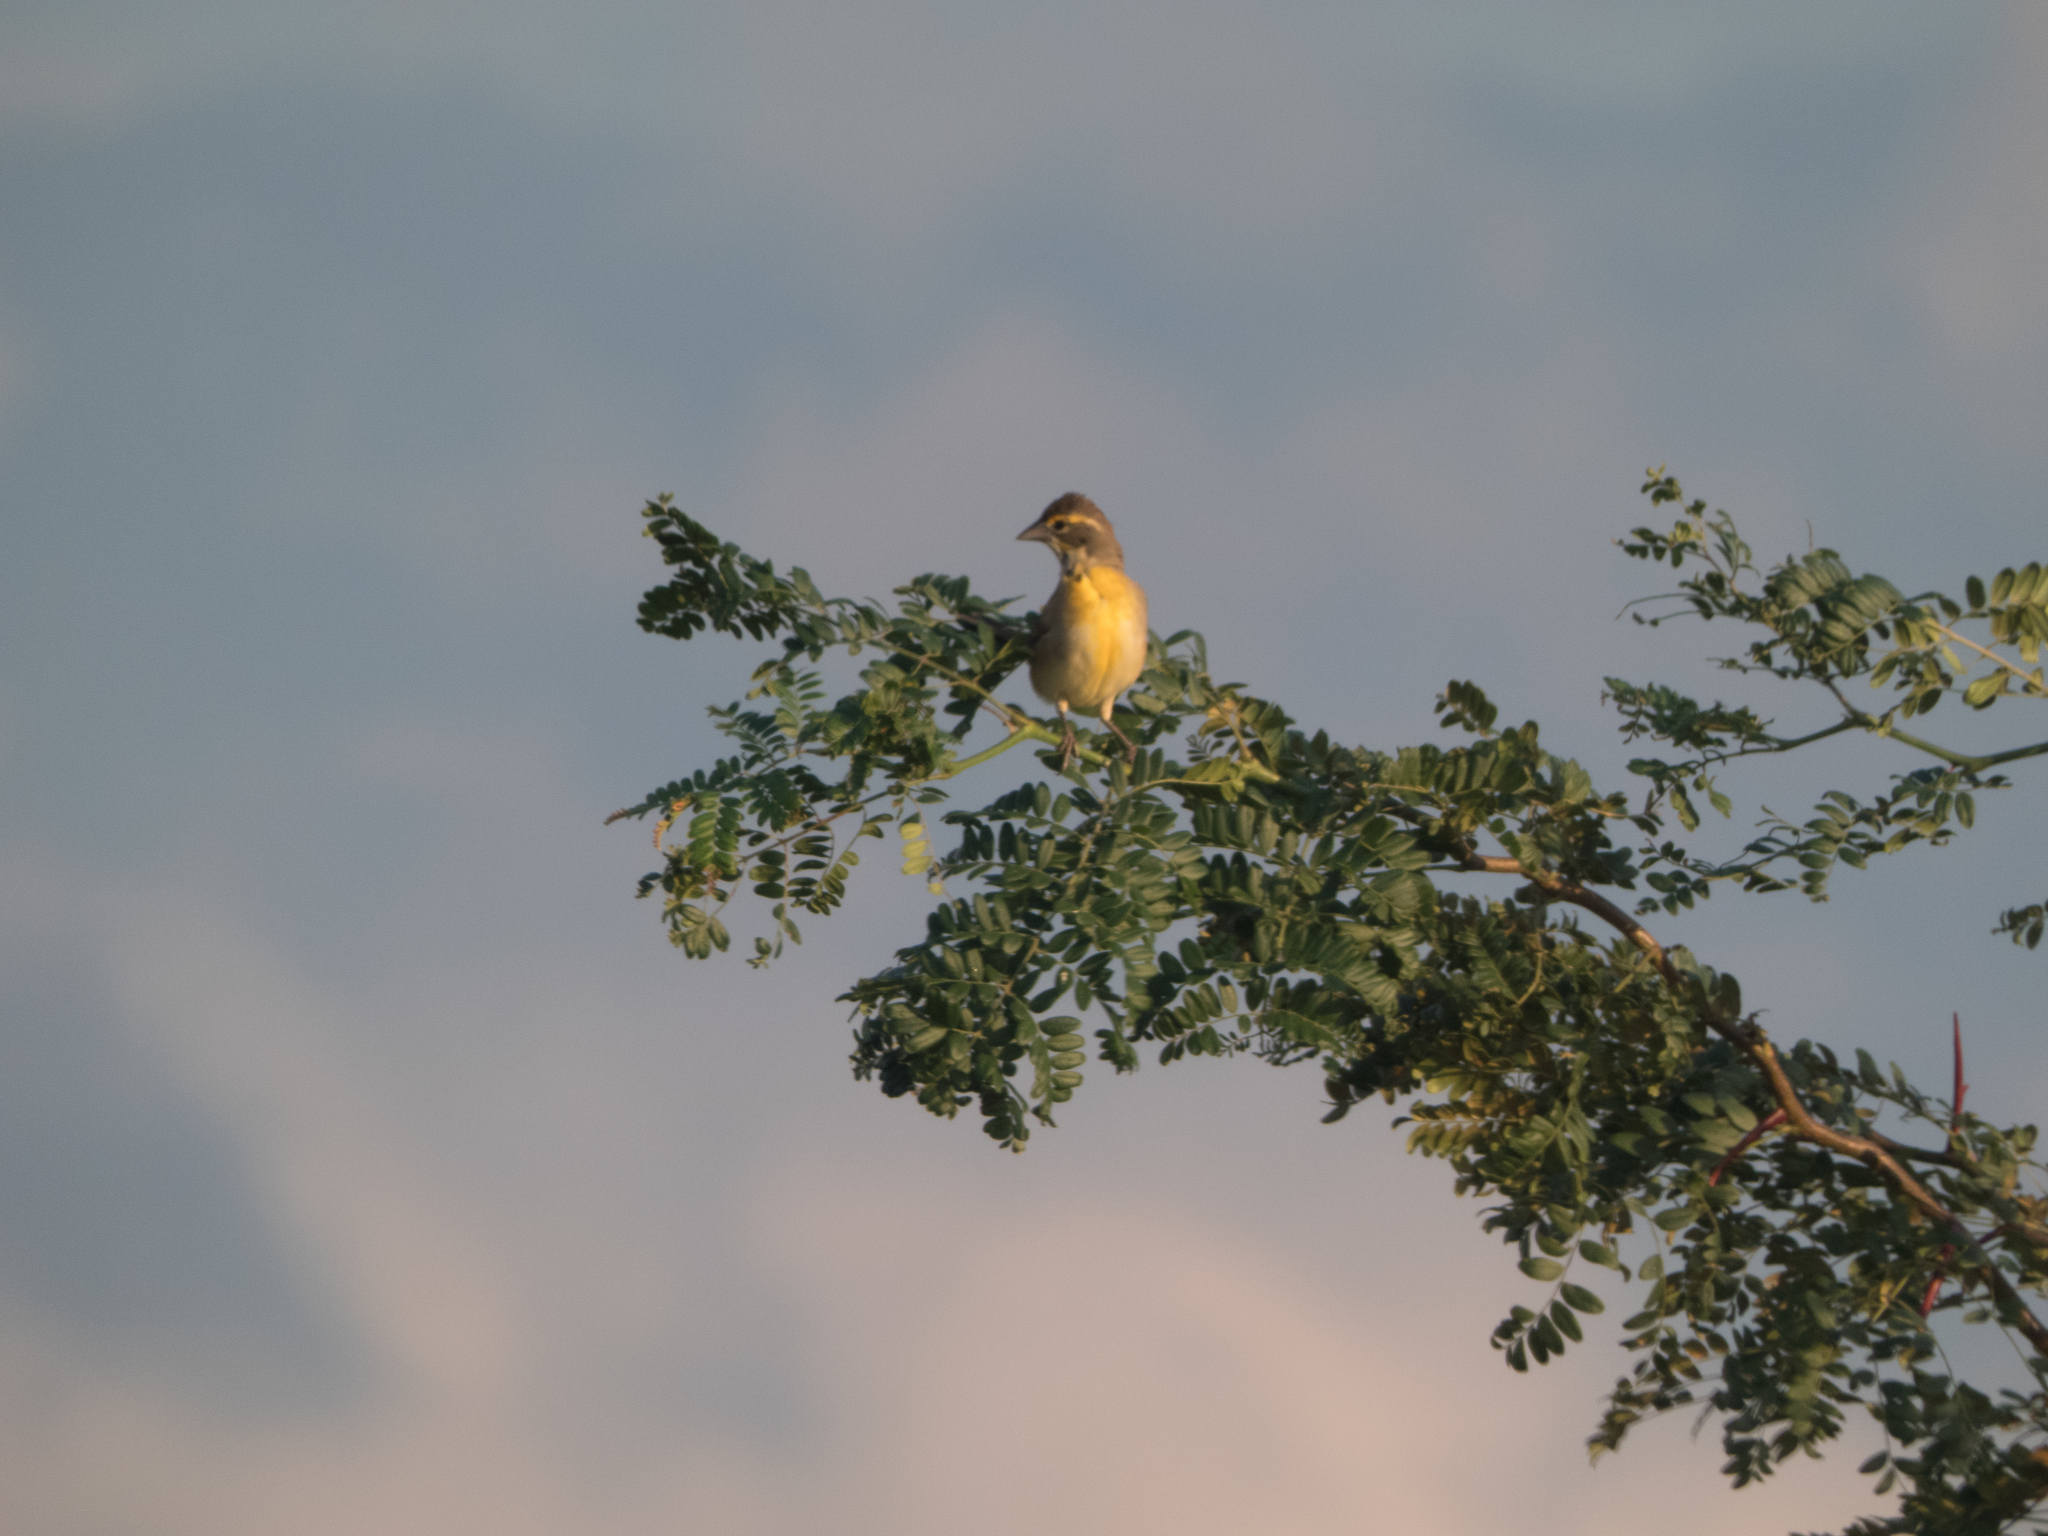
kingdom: Animalia
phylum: Chordata
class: Aves
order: Passeriformes
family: Cardinalidae
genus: Spiza
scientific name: Spiza americana
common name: Dickcissel
